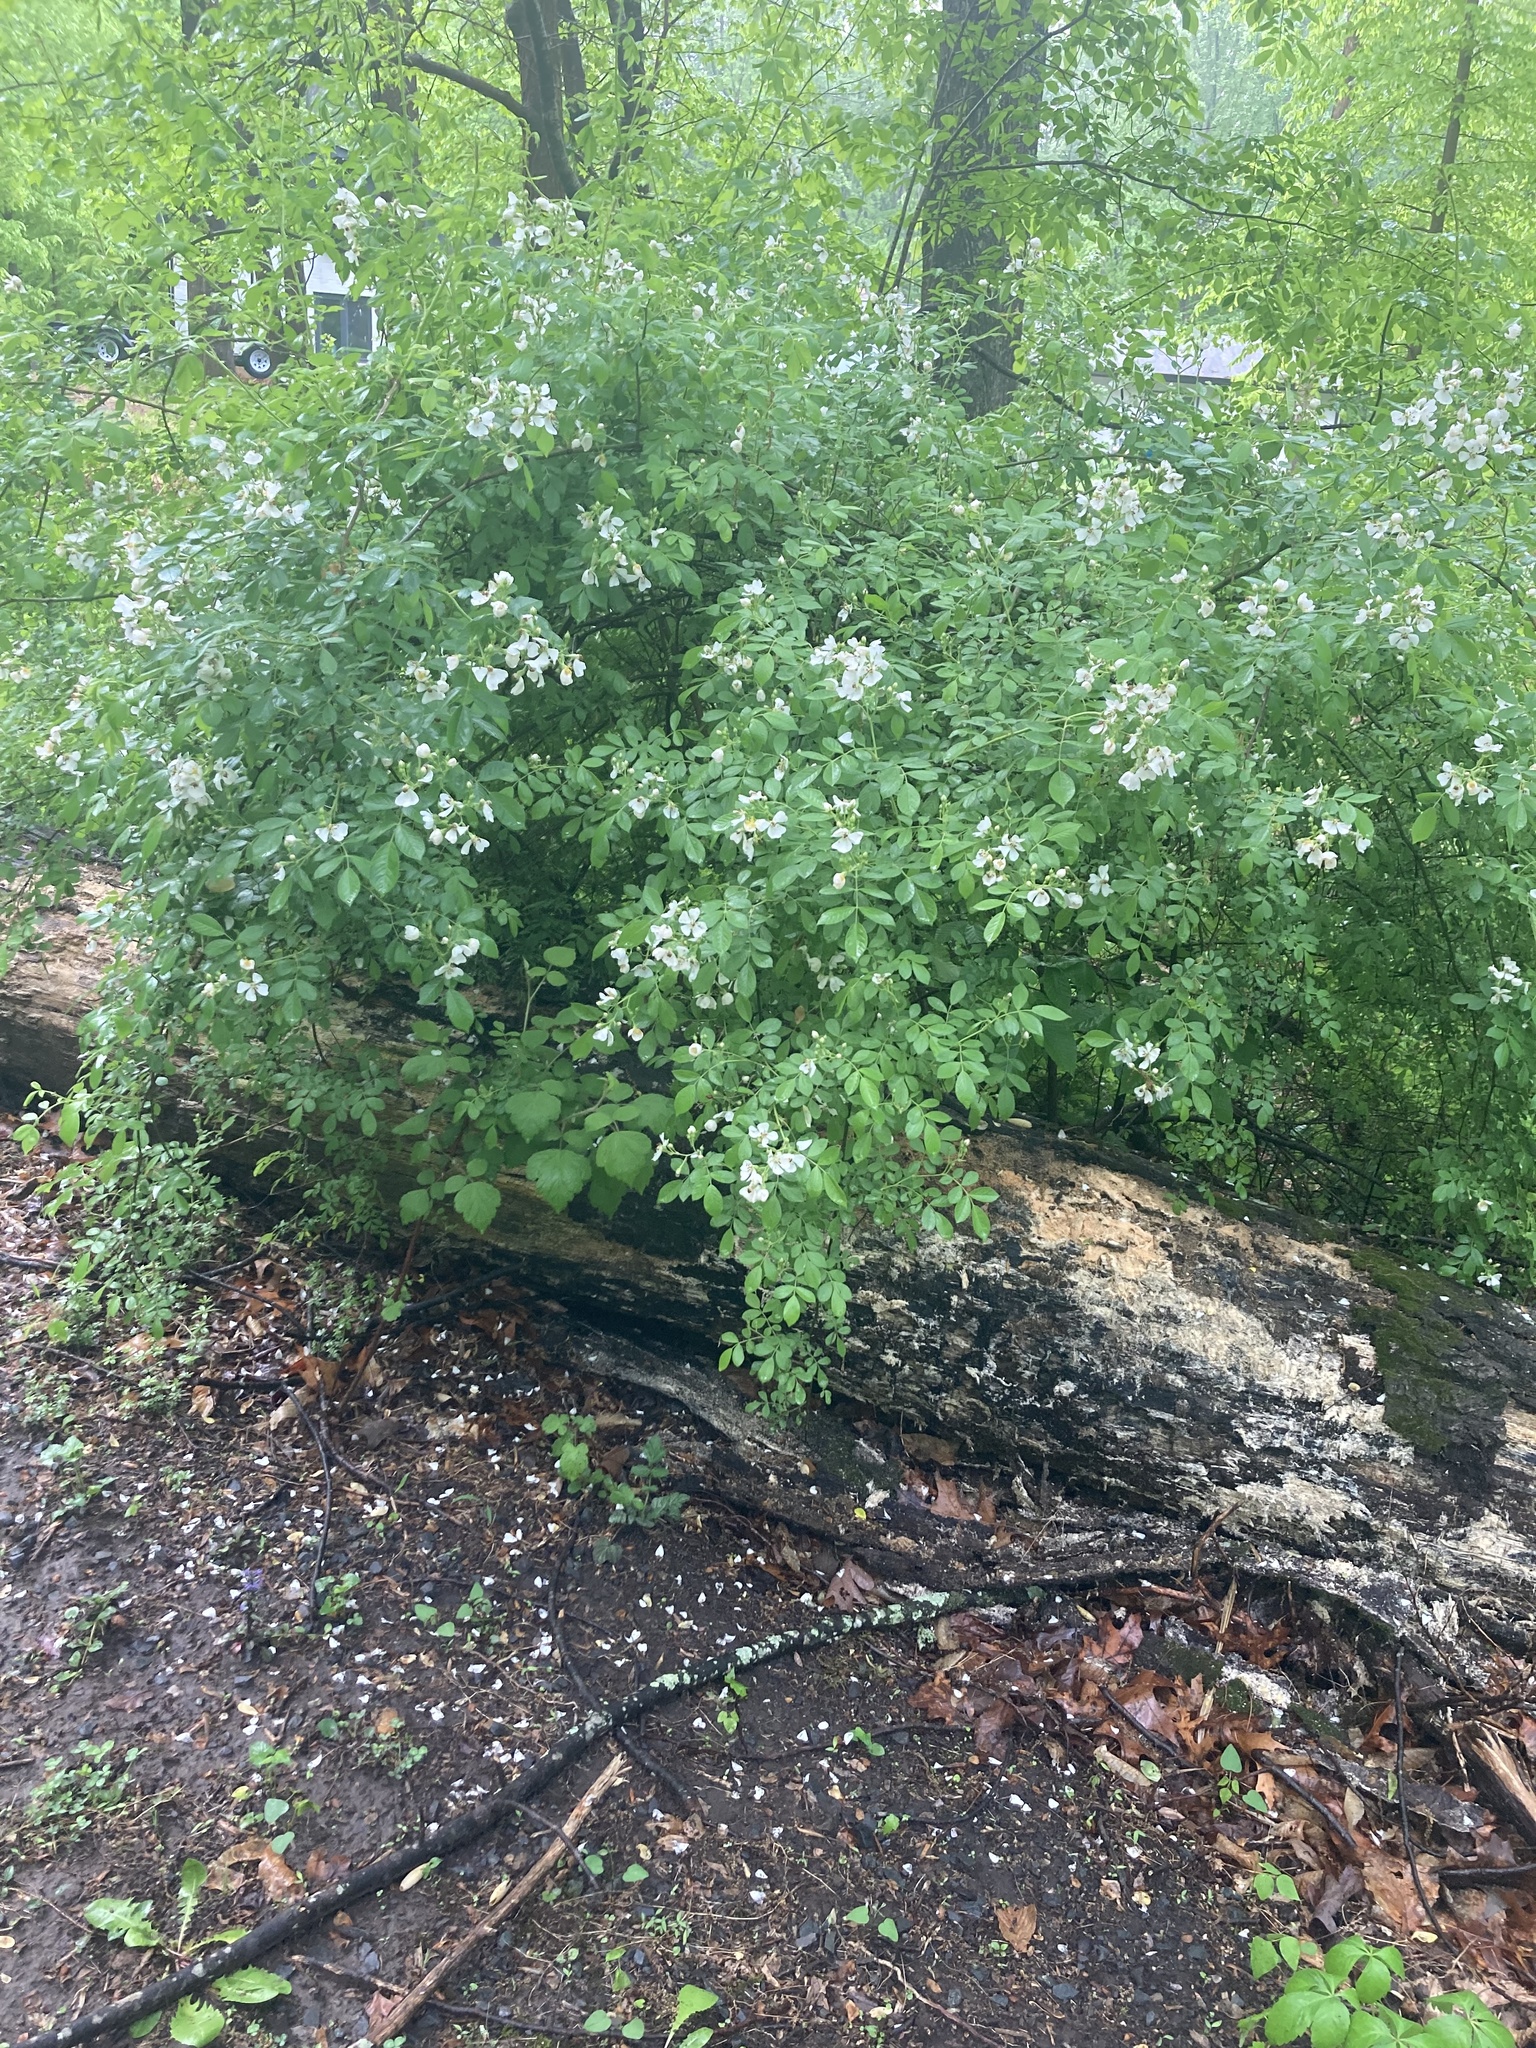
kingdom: Plantae
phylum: Tracheophyta
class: Magnoliopsida
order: Rosales
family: Rosaceae
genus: Rosa
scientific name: Rosa multiflora
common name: Multiflora rose
